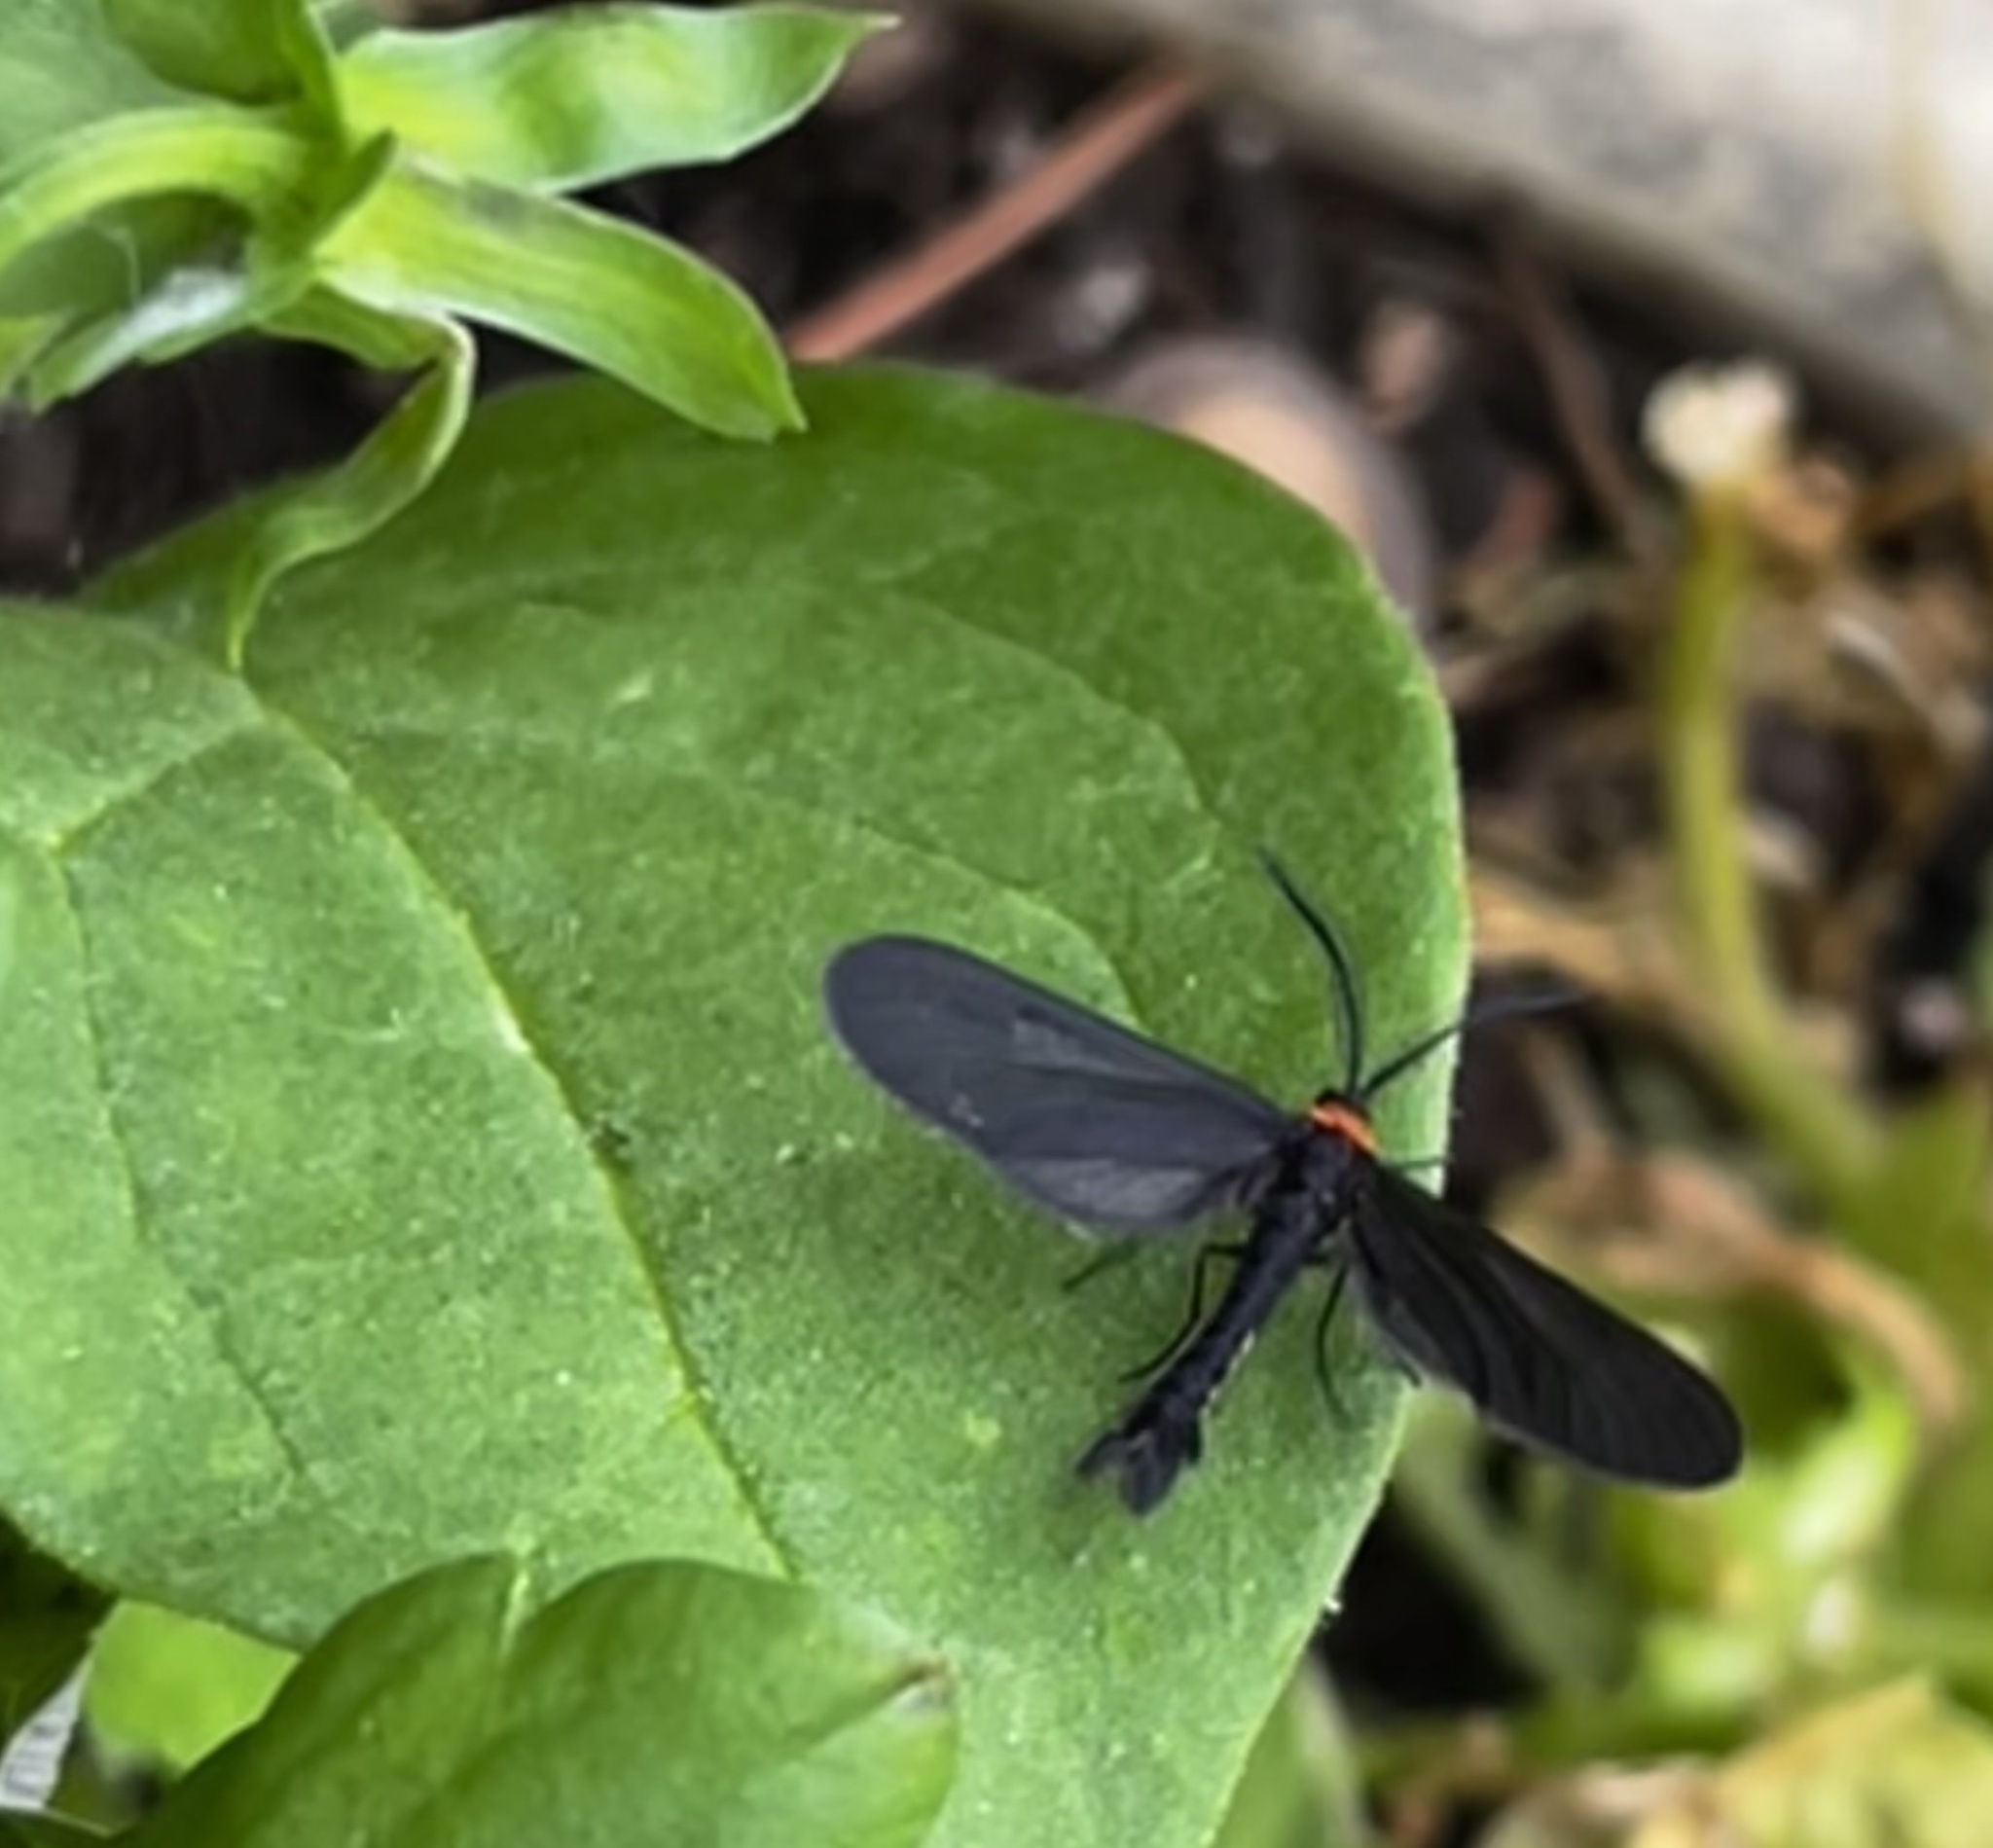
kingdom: Animalia
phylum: Arthropoda
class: Insecta
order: Lepidoptera
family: Zygaenidae
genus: Harrisina
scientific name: Harrisina americana
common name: Grapeleaf skeletonizer moth
